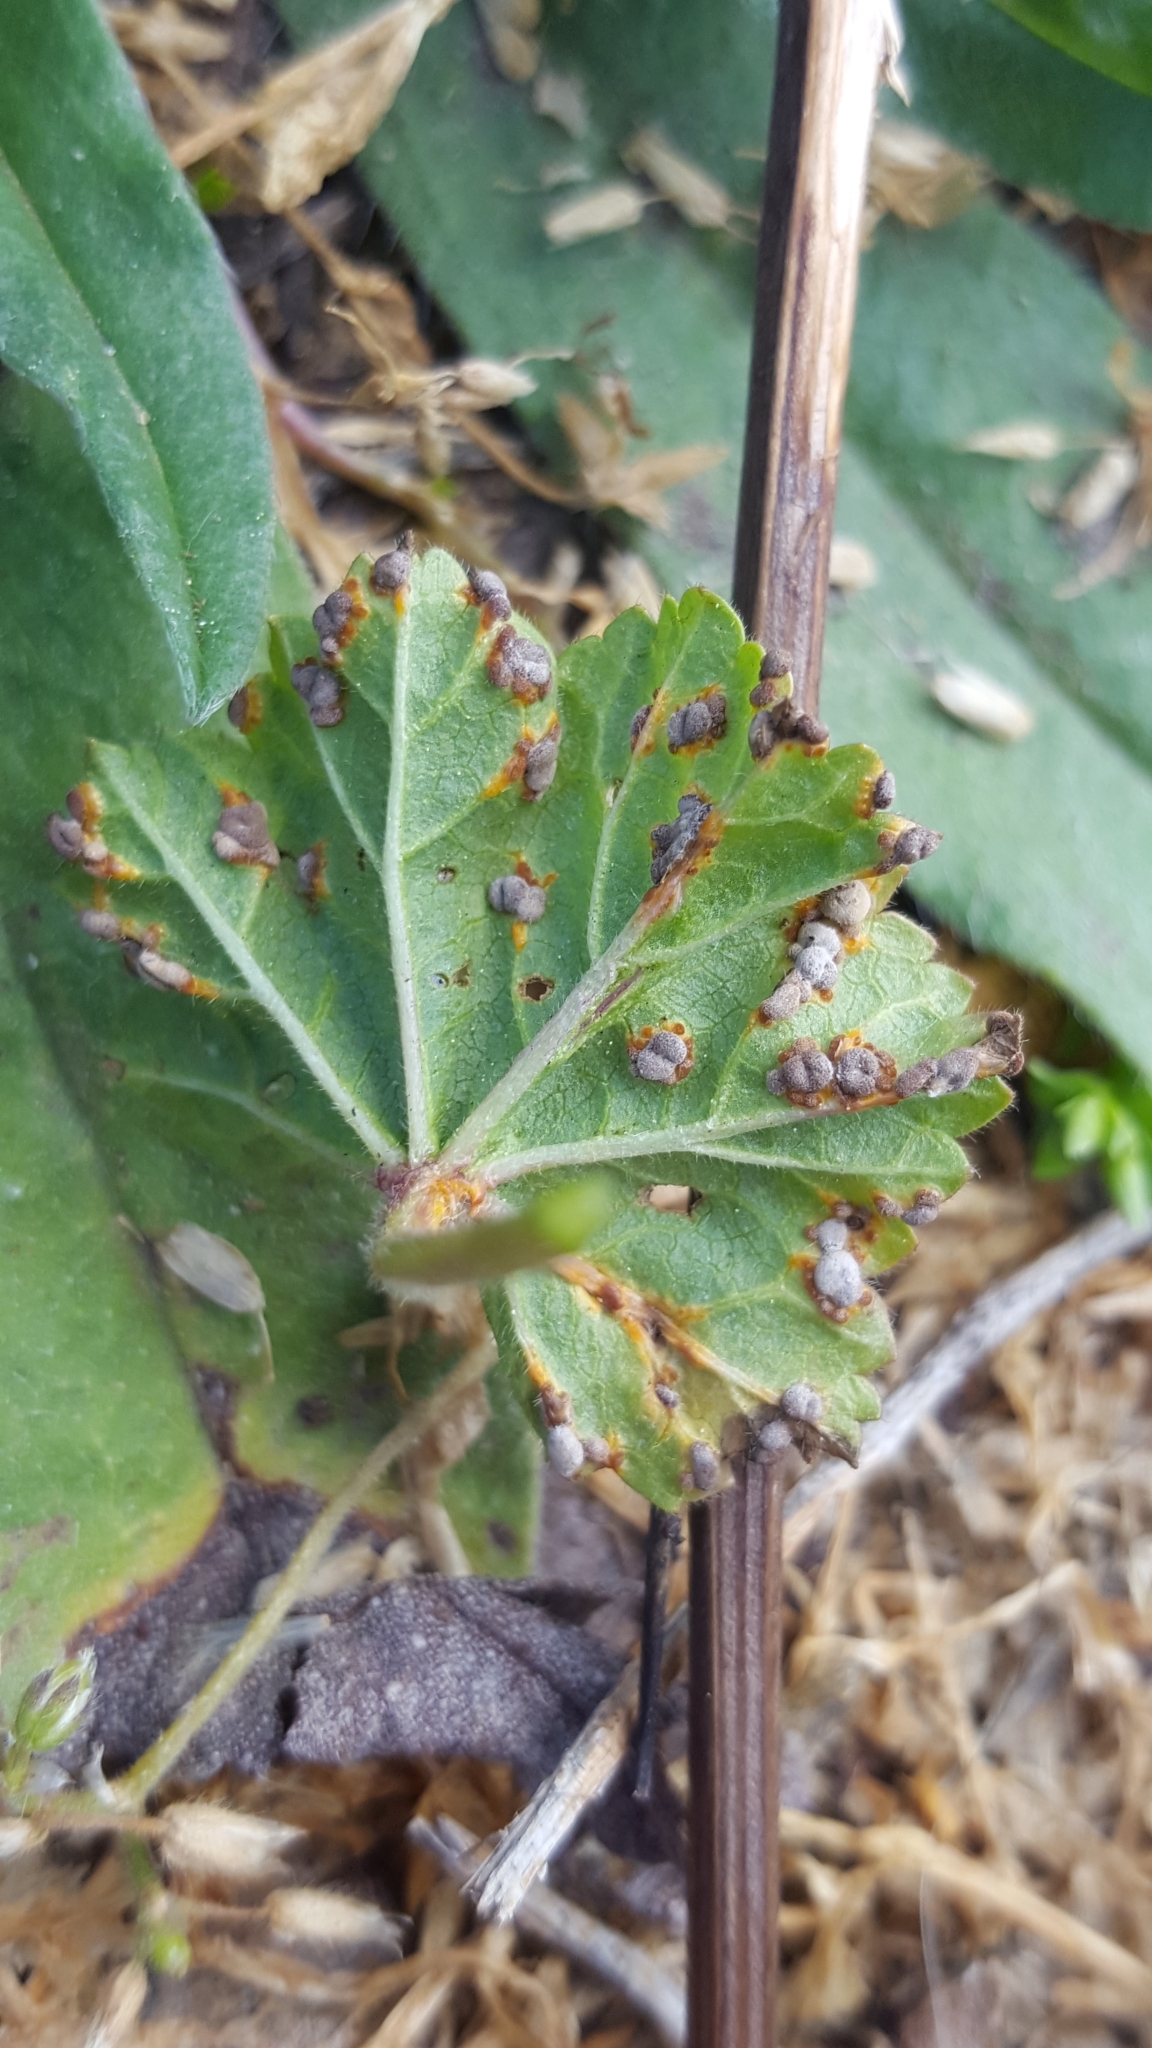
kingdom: Fungi
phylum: Basidiomycota
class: Pucciniomycetes
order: Pucciniales
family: Pucciniaceae
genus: Puccinia
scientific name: Puccinia malvacearum
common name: Hollyhock rust
